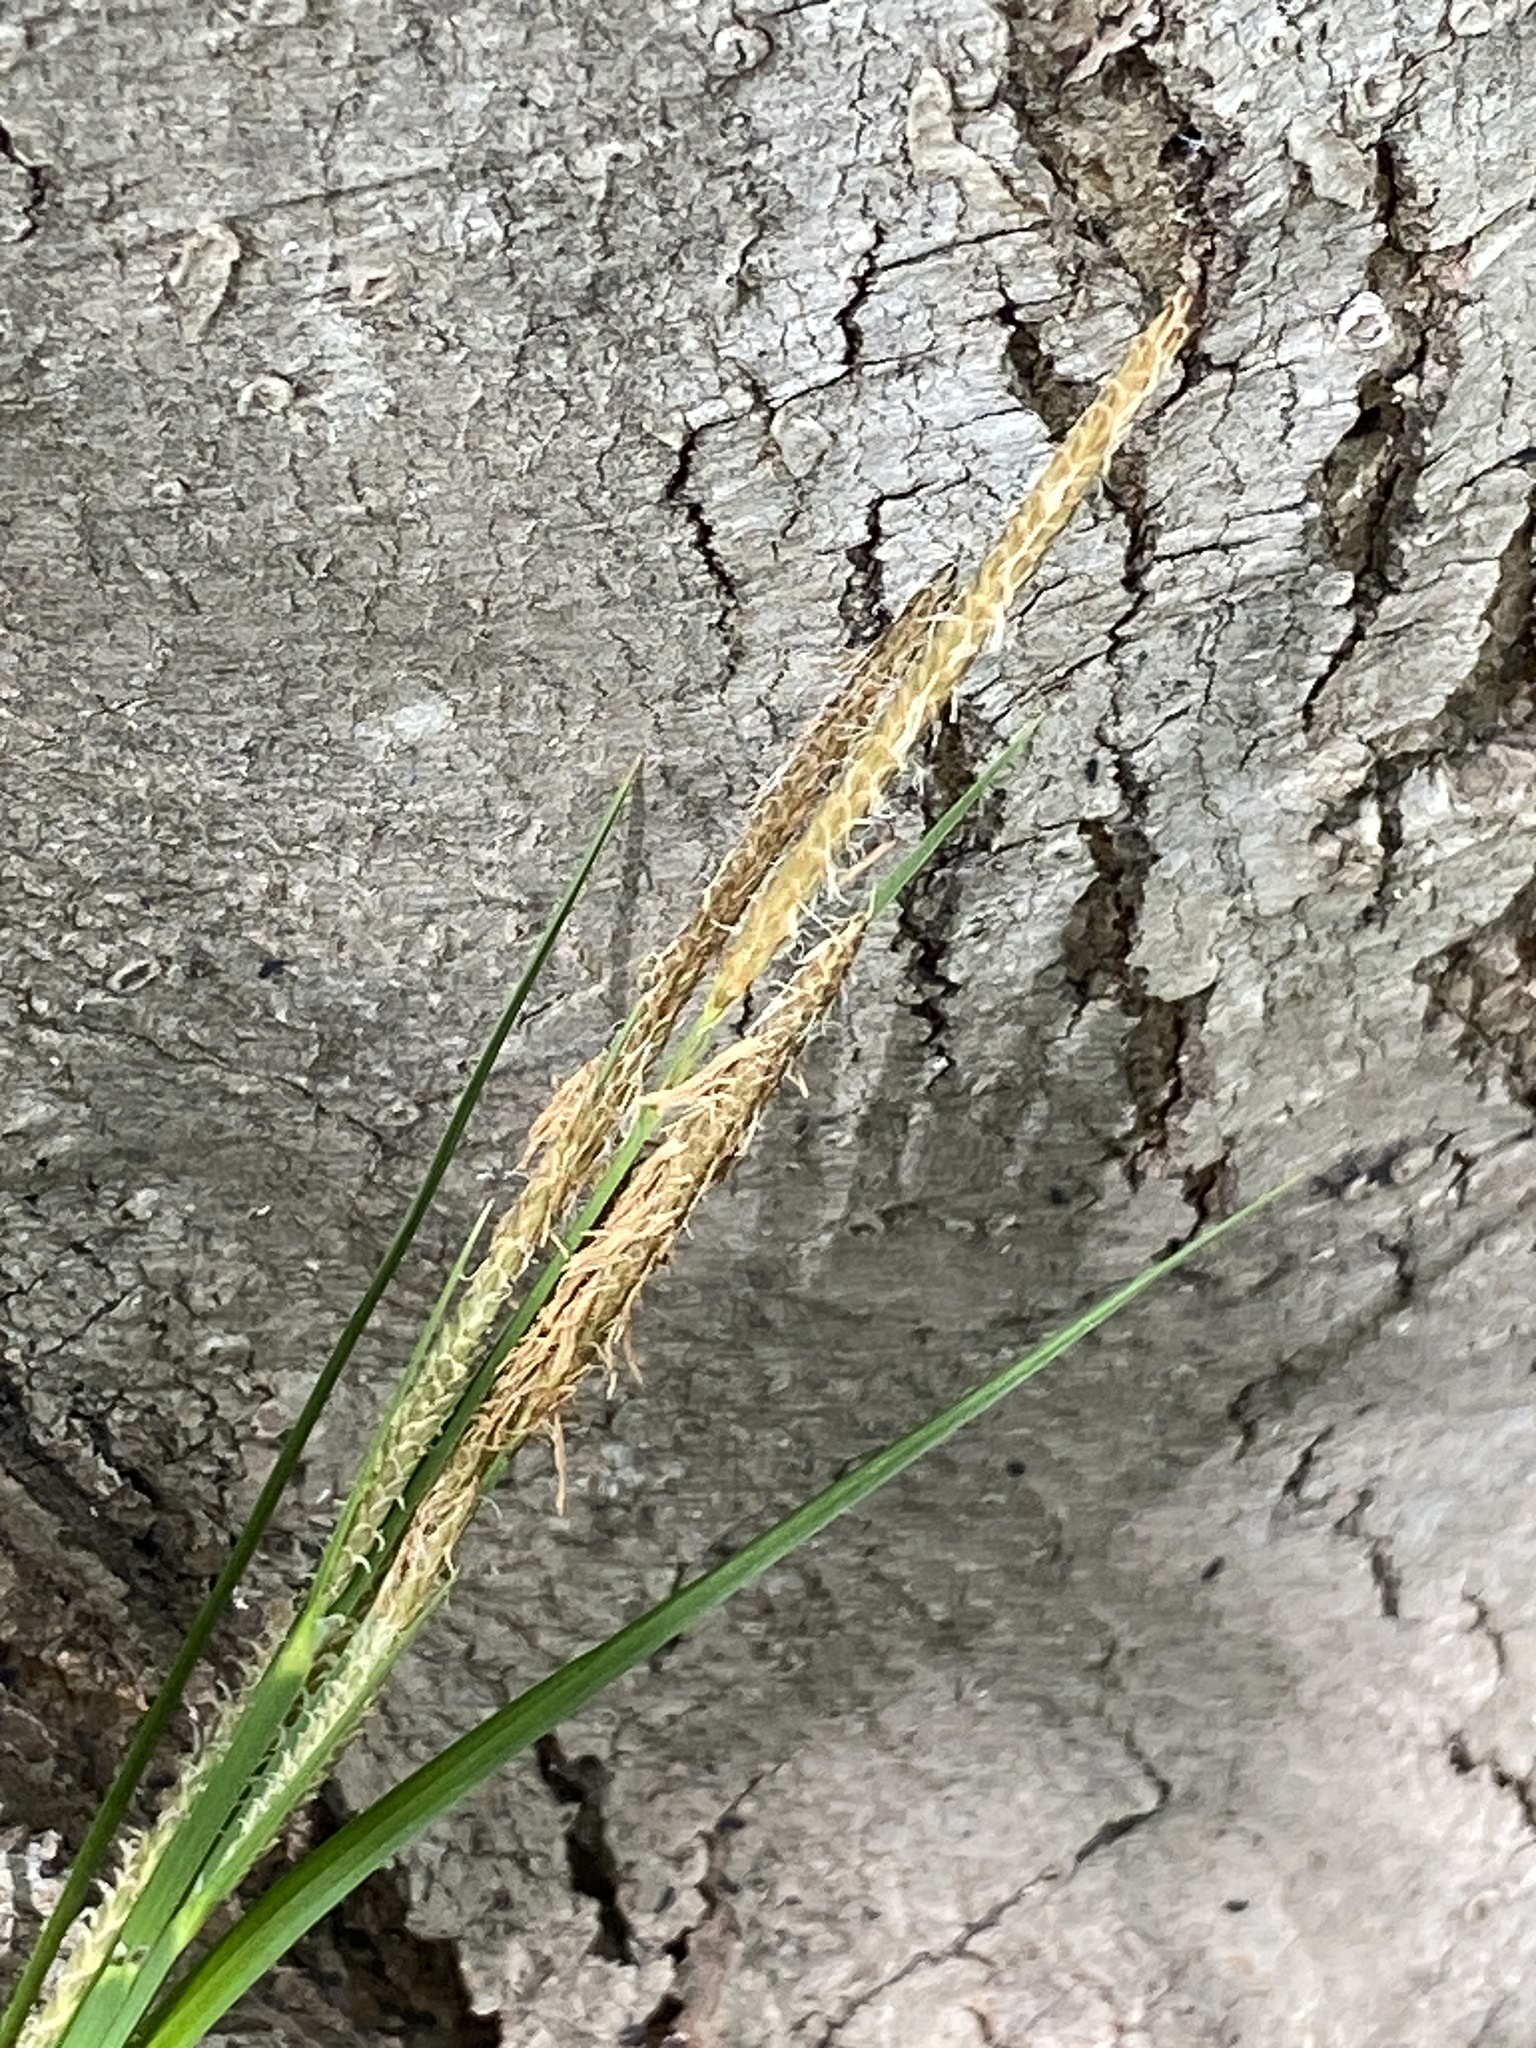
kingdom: Plantae
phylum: Tracheophyta
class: Liliopsida
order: Poales
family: Cyperaceae
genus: Carex
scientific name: Carex stricta
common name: Hummock sedge
